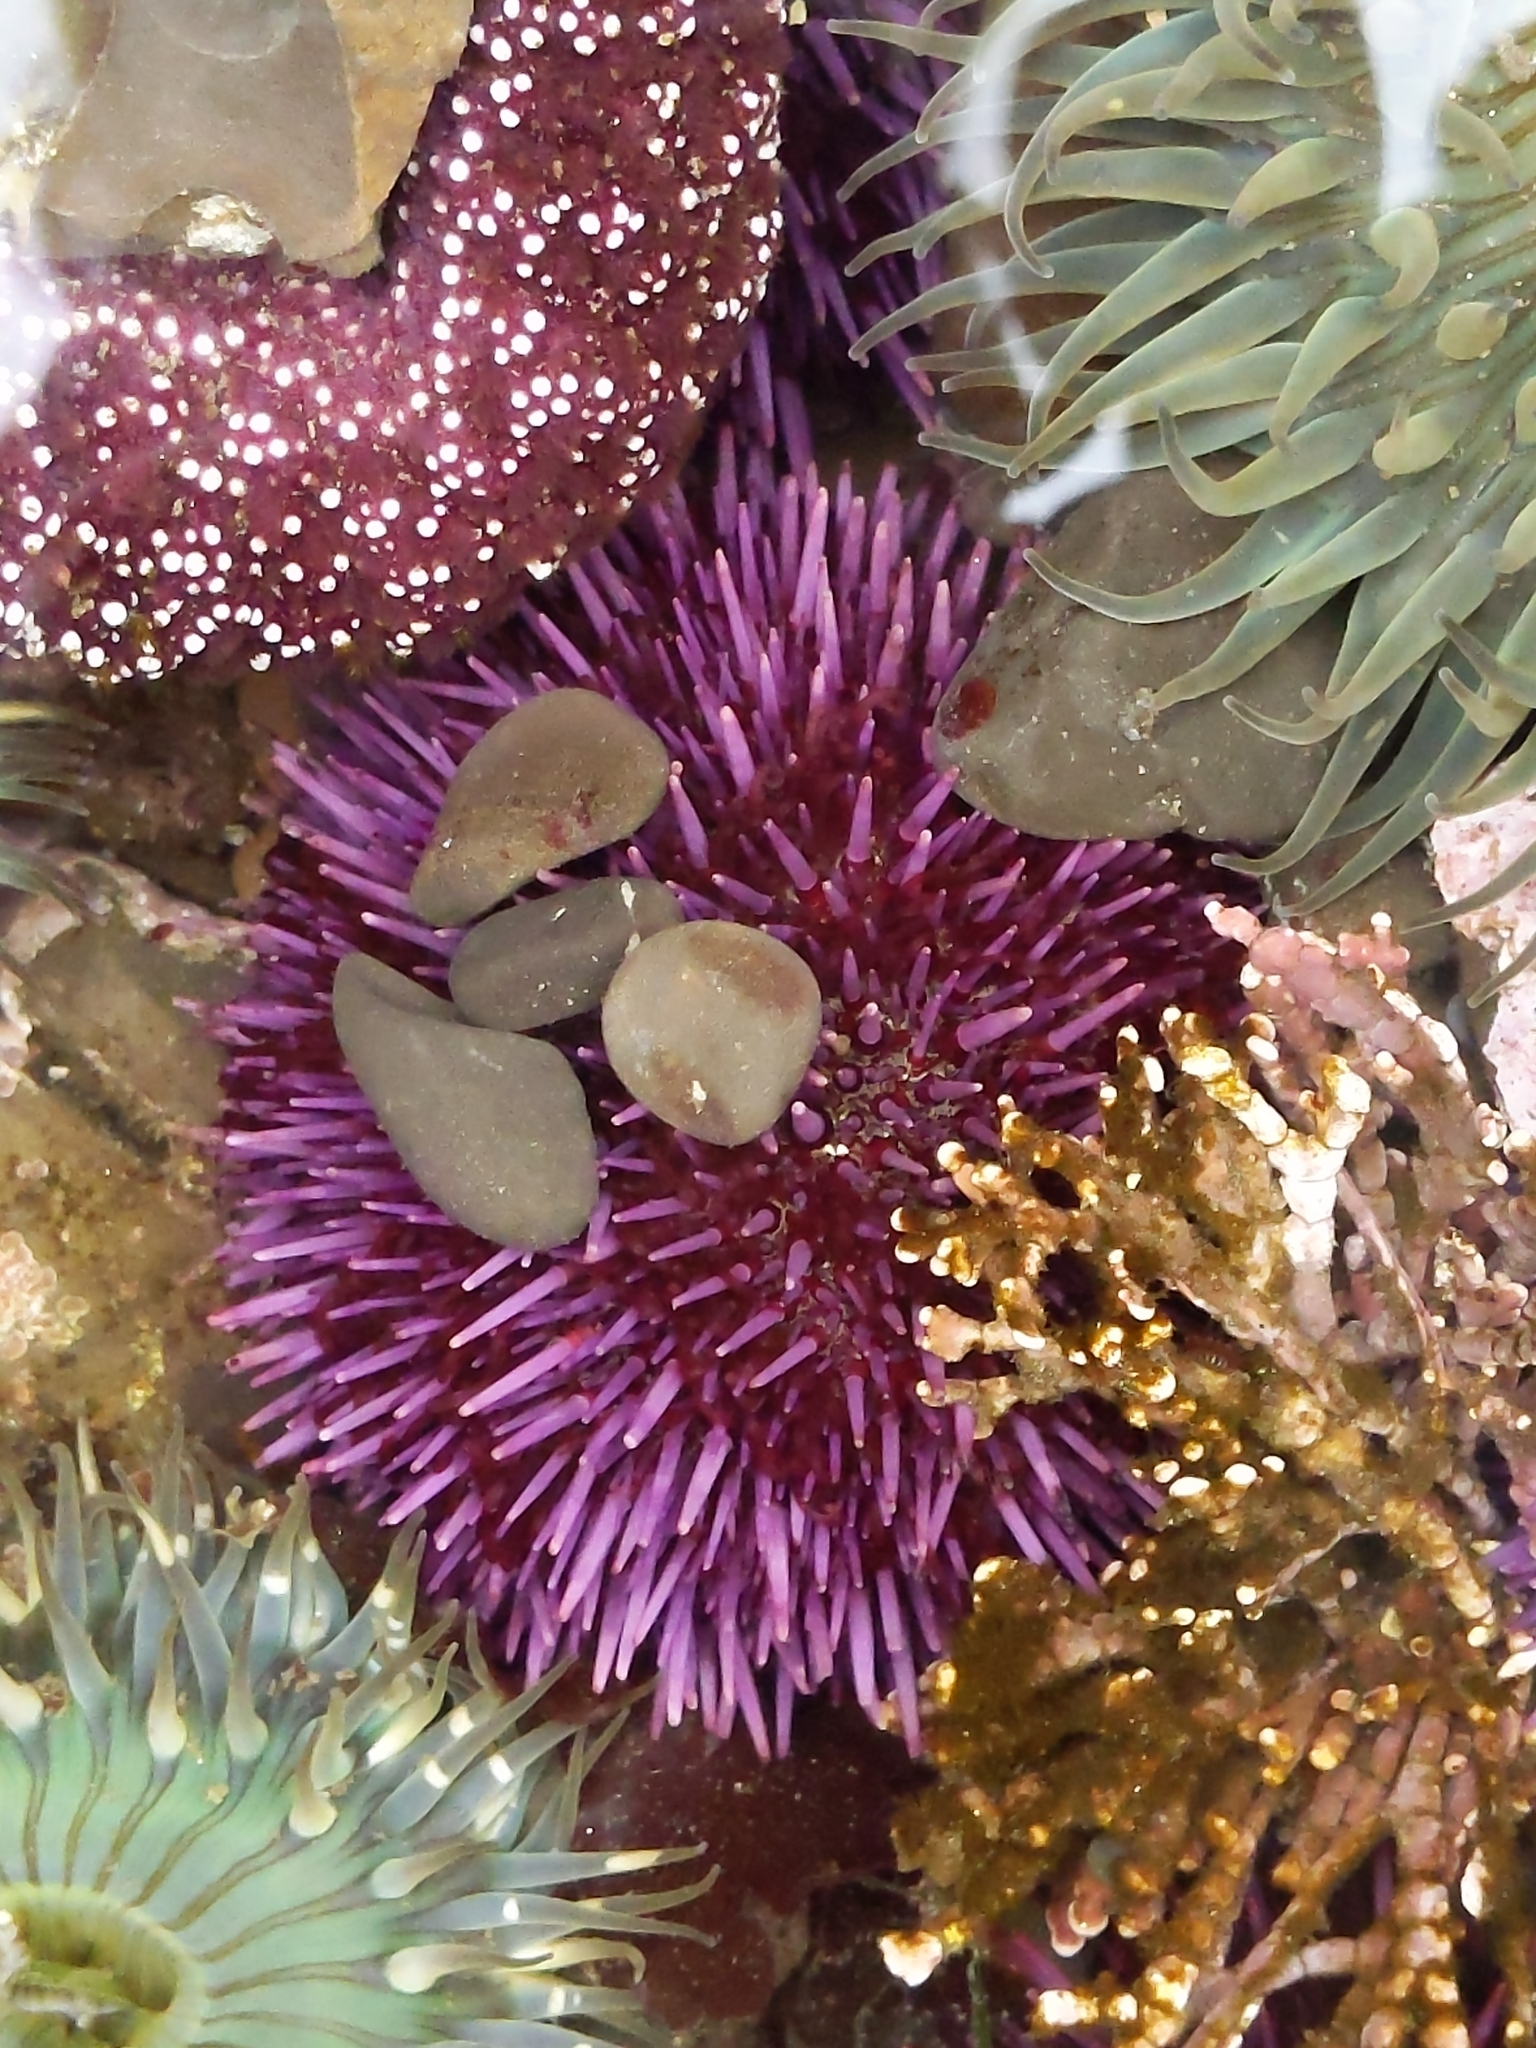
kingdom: Animalia
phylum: Echinodermata
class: Echinoidea
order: Camarodonta
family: Strongylocentrotidae
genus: Strongylocentrotus
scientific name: Strongylocentrotus purpuratus
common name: Purple sea urchin
